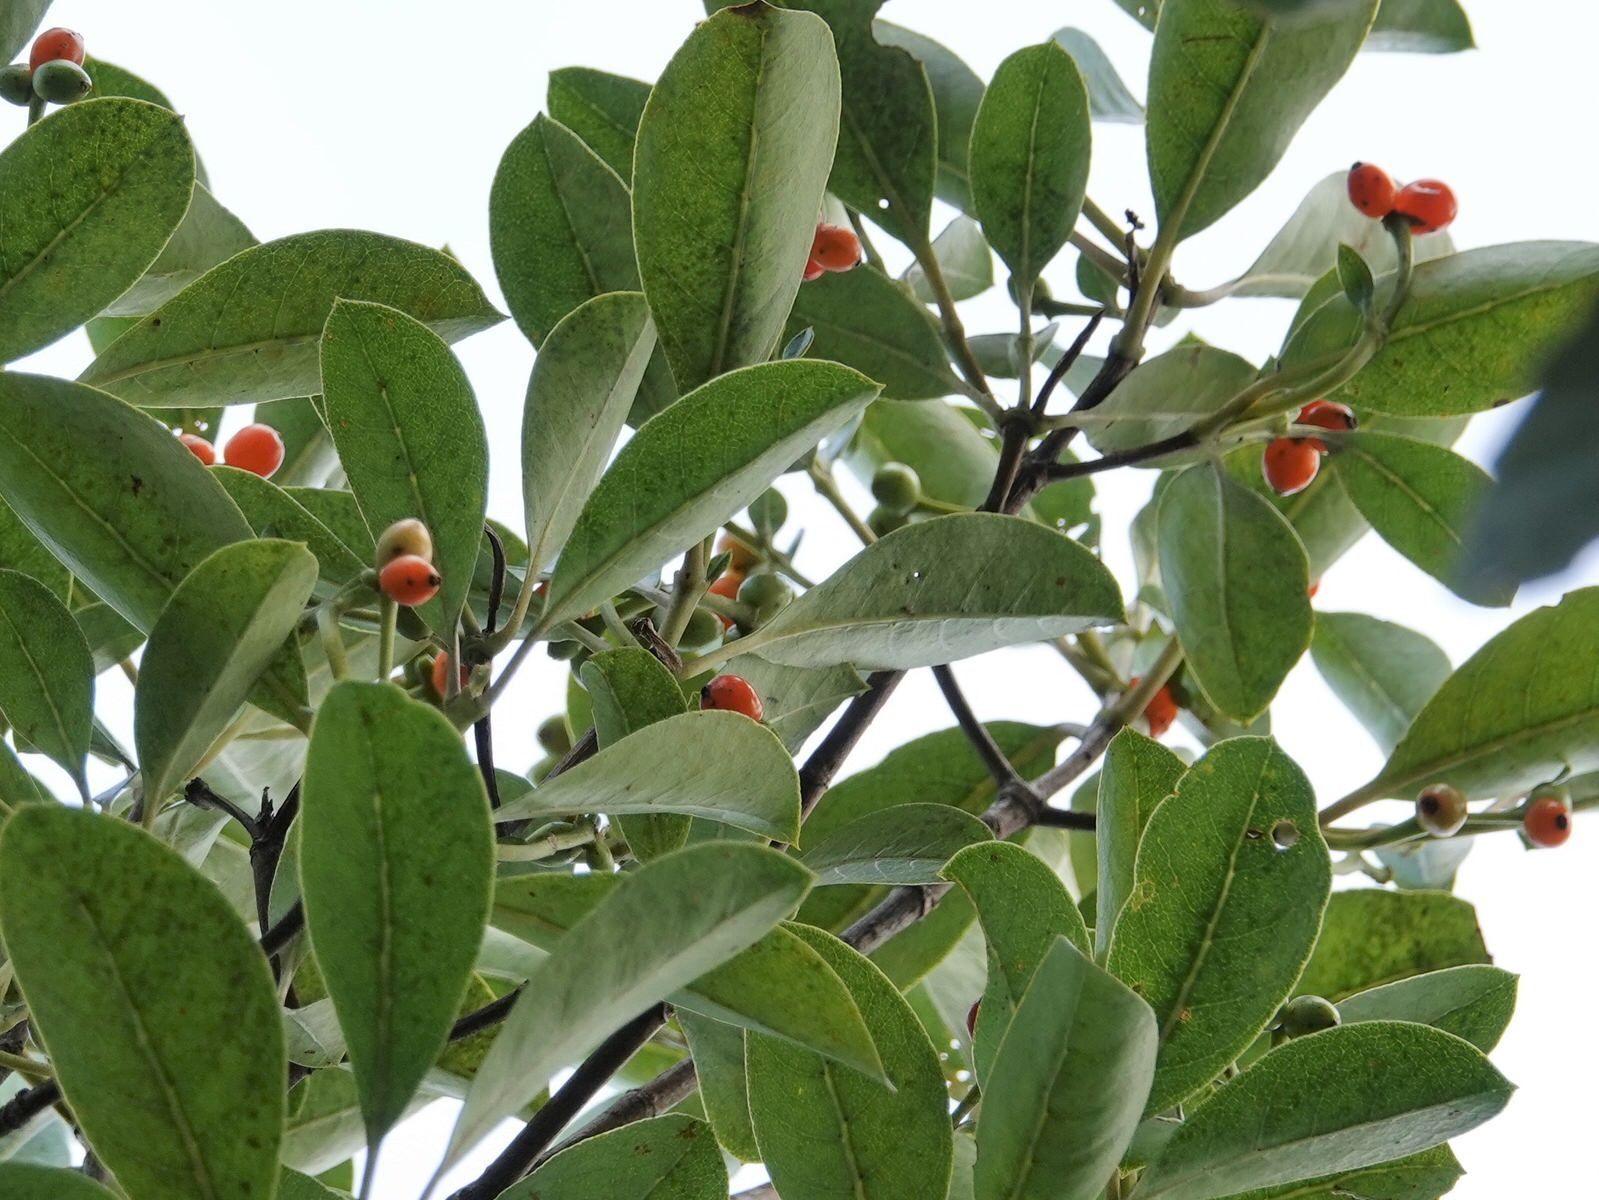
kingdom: Plantae
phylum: Tracheophyta
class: Magnoliopsida
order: Gentianales
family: Rubiaceae
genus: Coprosma
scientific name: Coprosma lucida
